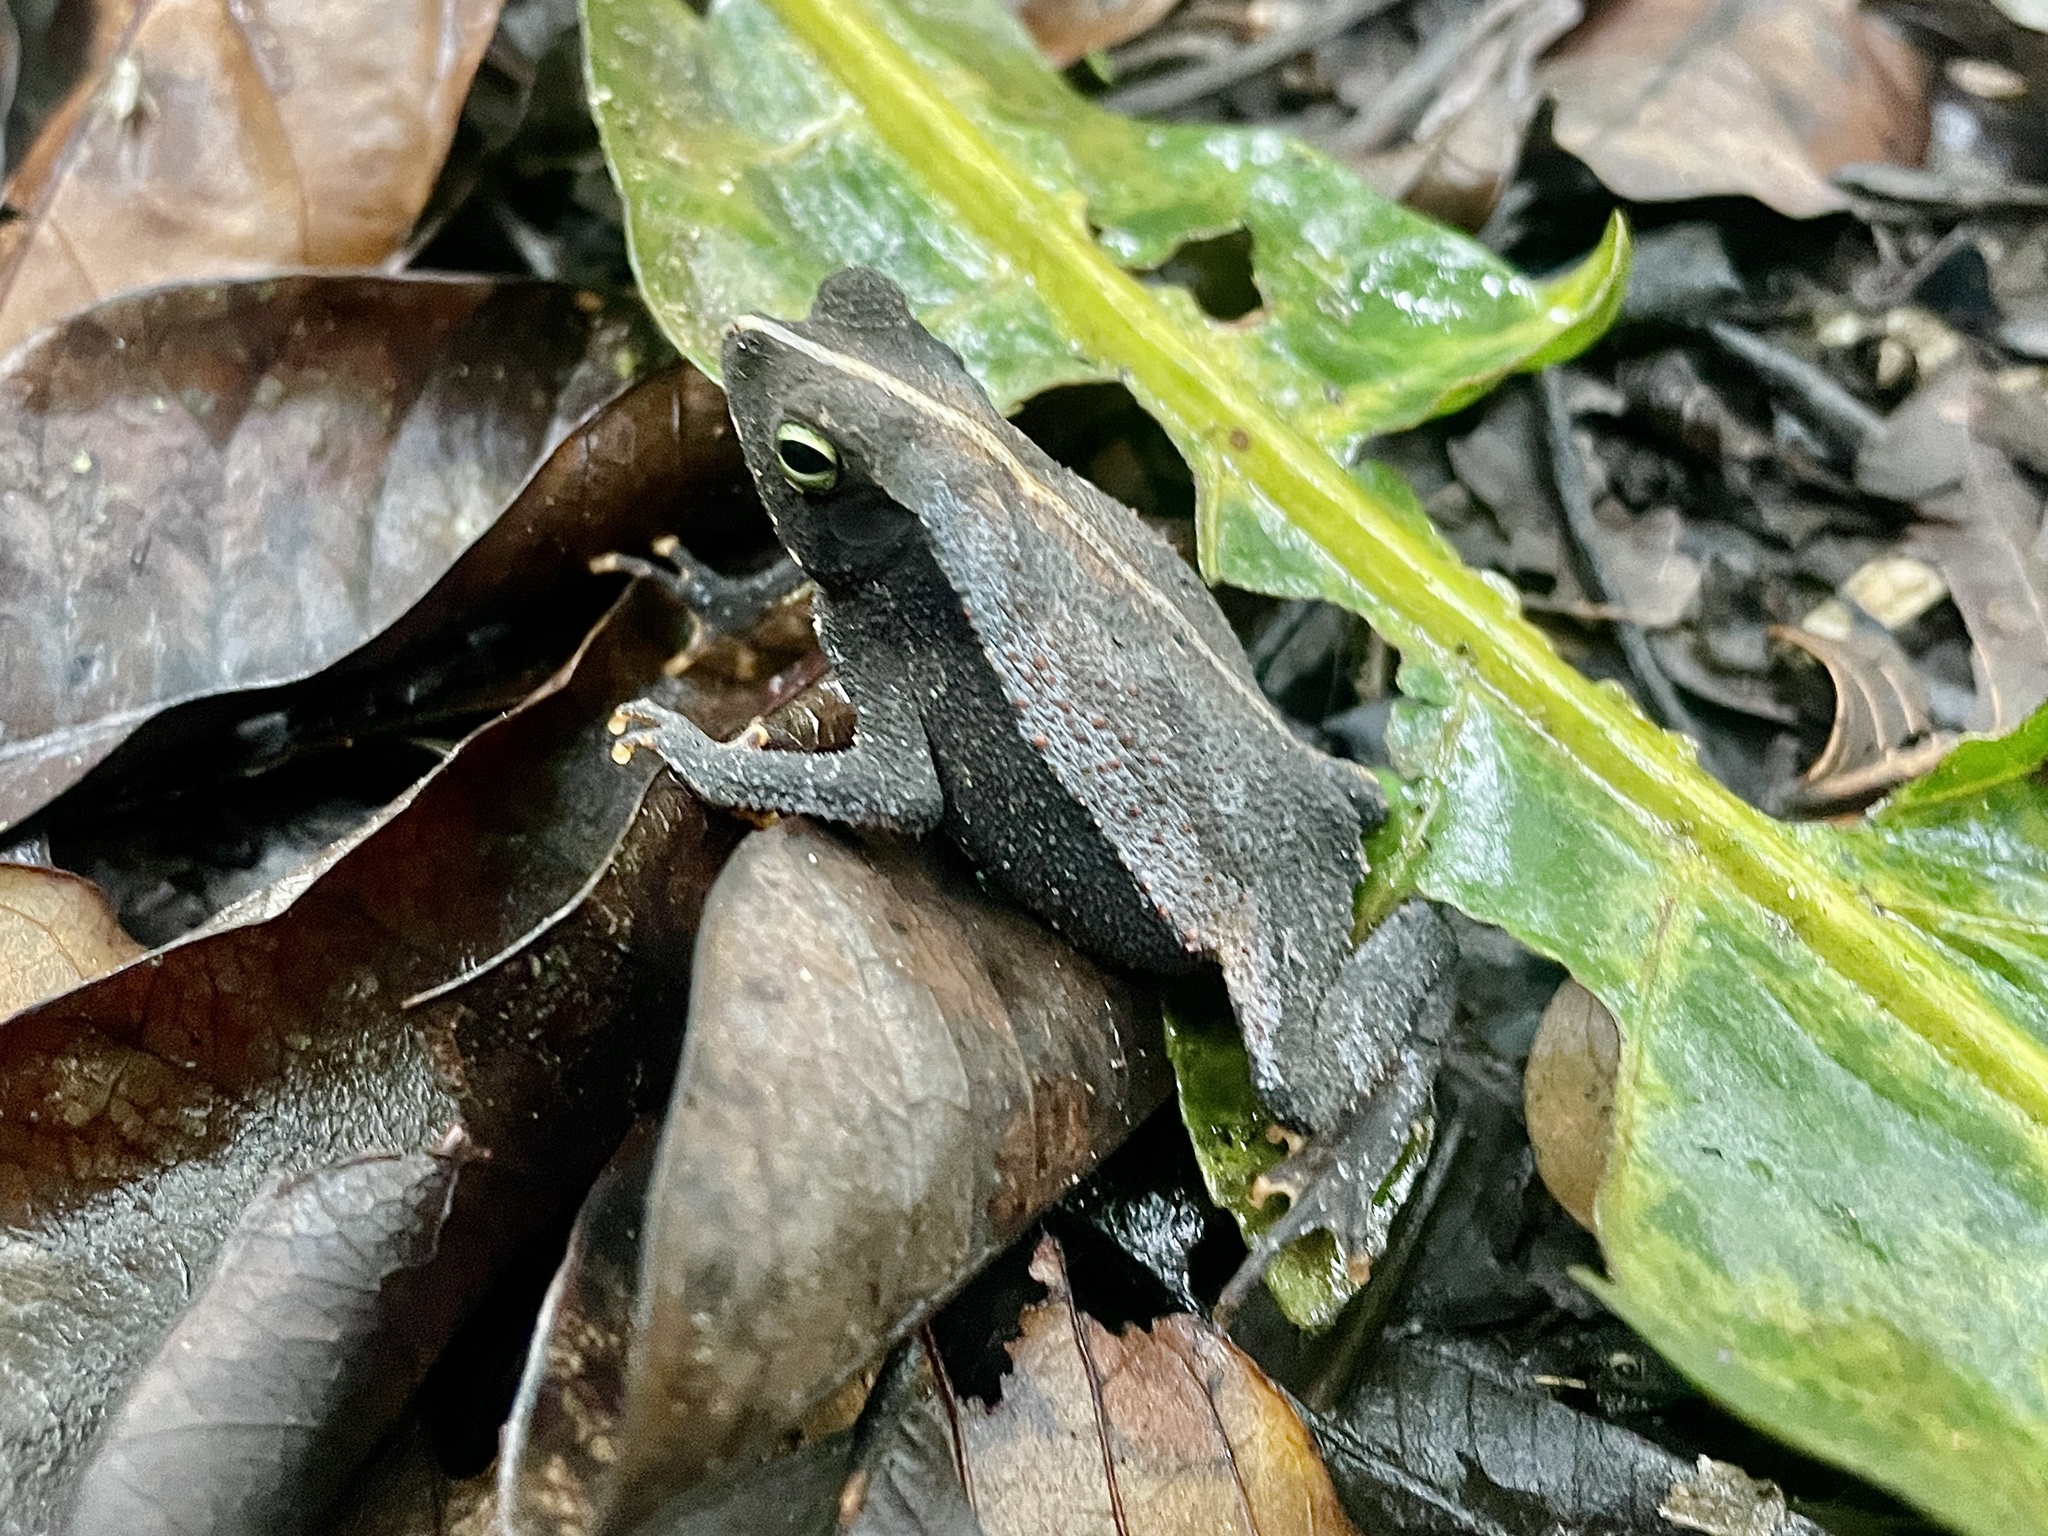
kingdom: Animalia
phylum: Chordata
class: Amphibia
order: Anura
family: Bufonidae
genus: Rhinella
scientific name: Rhinella alata
